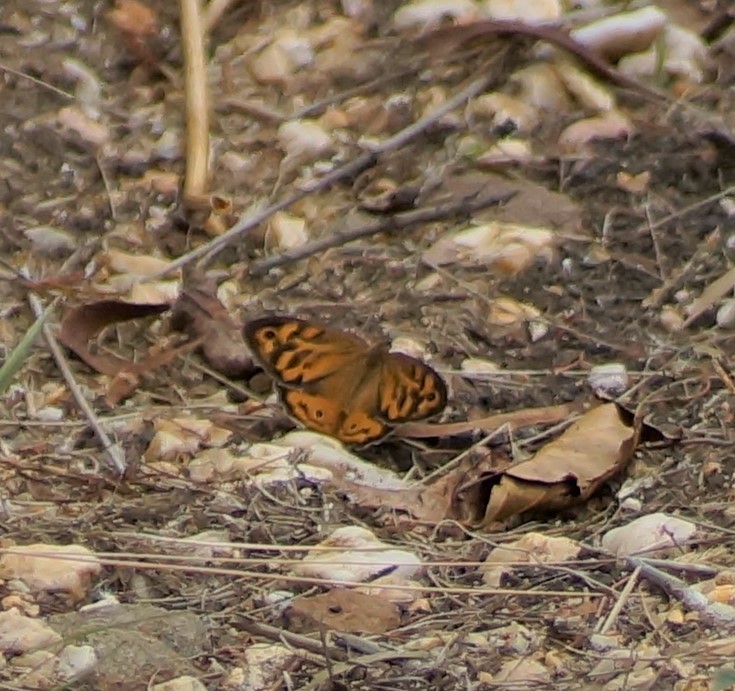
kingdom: Animalia
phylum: Arthropoda
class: Insecta
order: Lepidoptera
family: Nymphalidae
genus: Heteronympha
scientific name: Heteronympha merope
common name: Common brown
